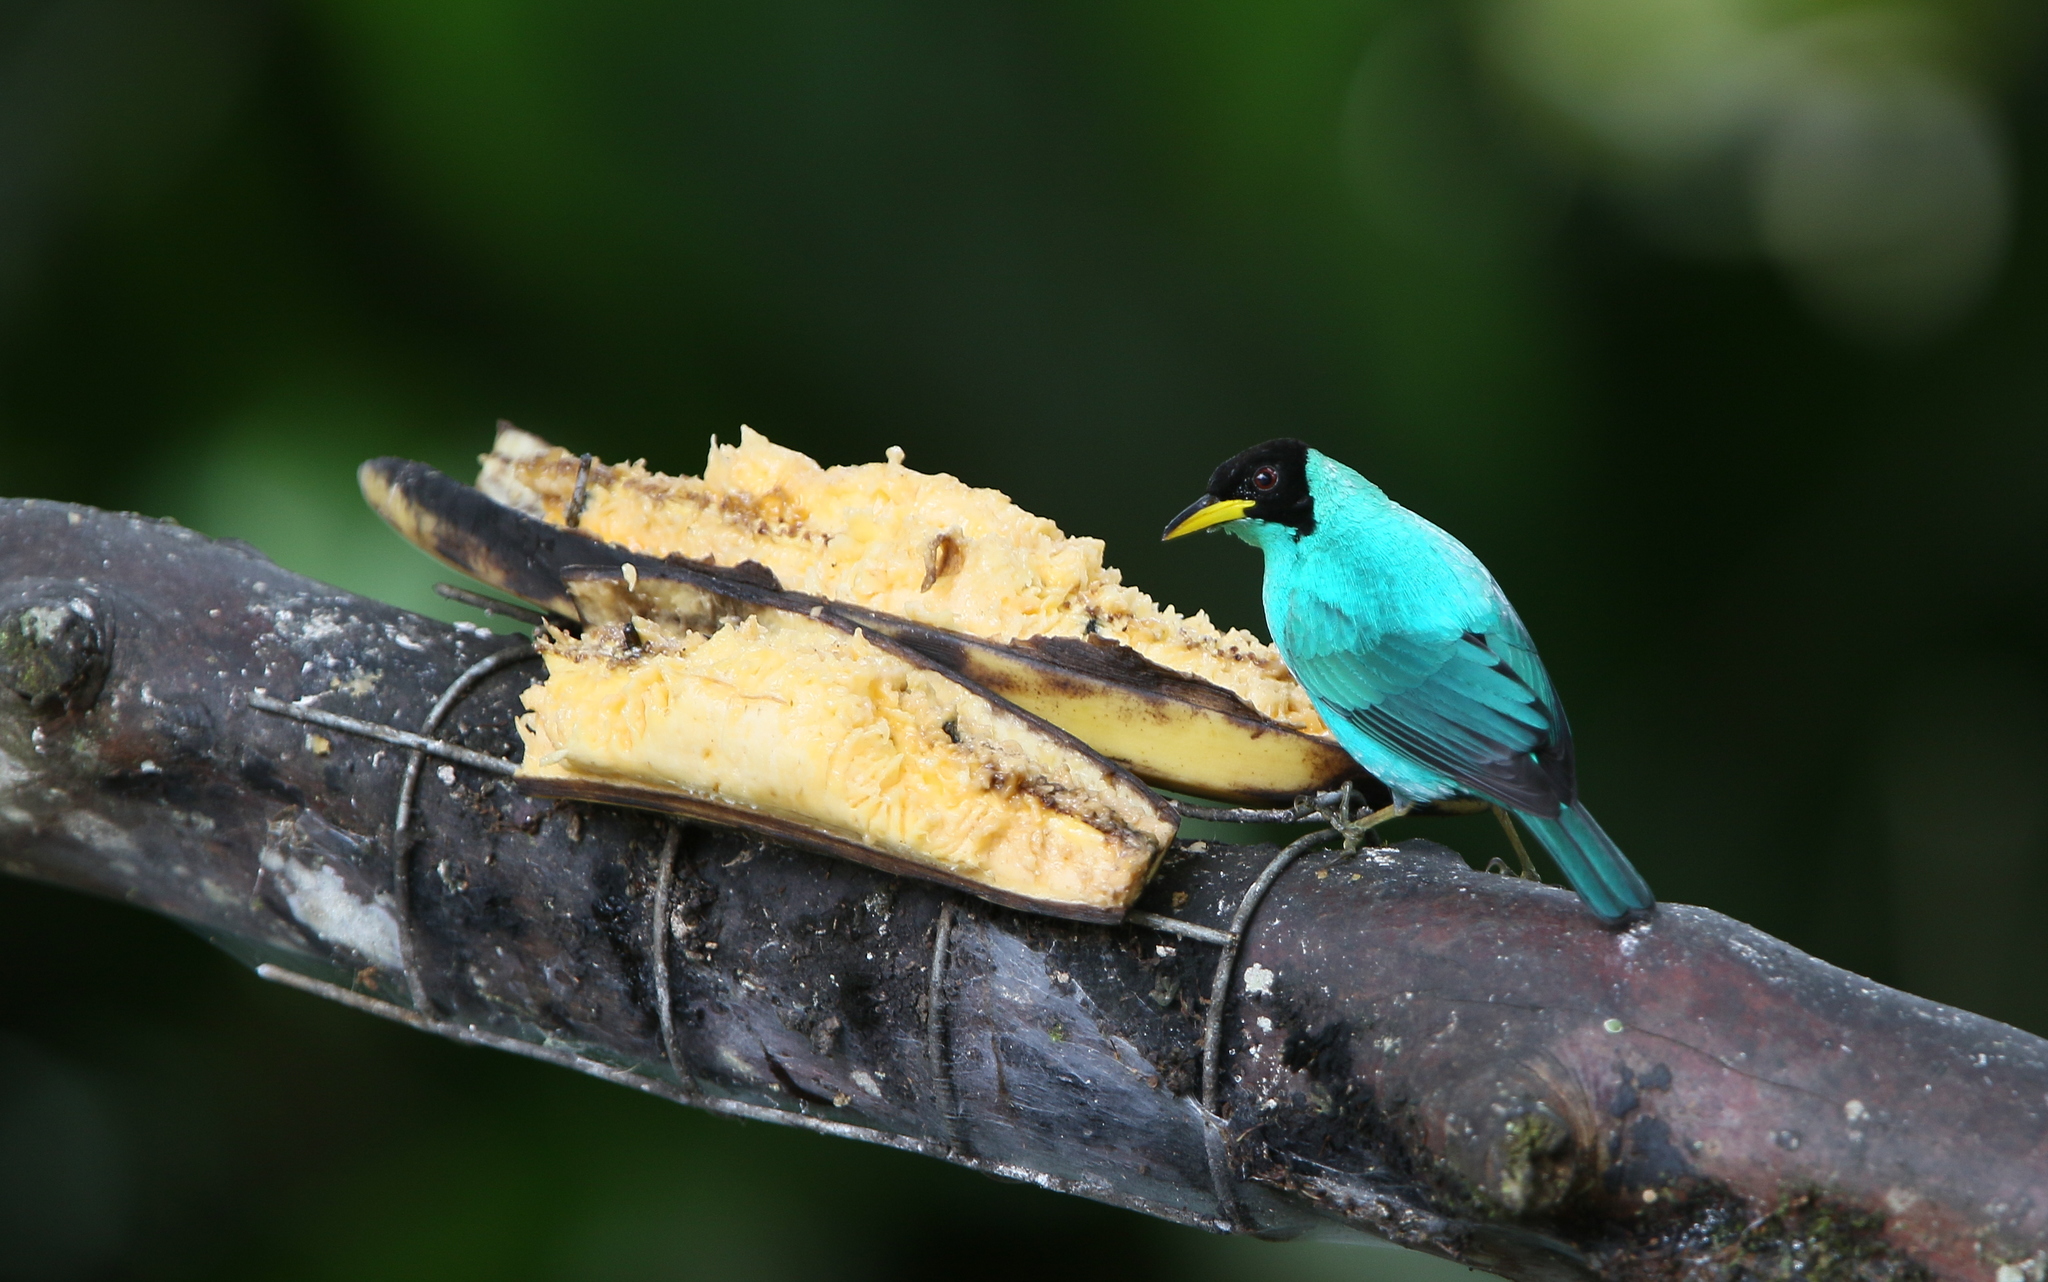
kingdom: Animalia
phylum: Chordata
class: Aves
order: Passeriformes
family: Thraupidae
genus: Chlorophanes
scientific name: Chlorophanes spiza
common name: Green honeycreeper
